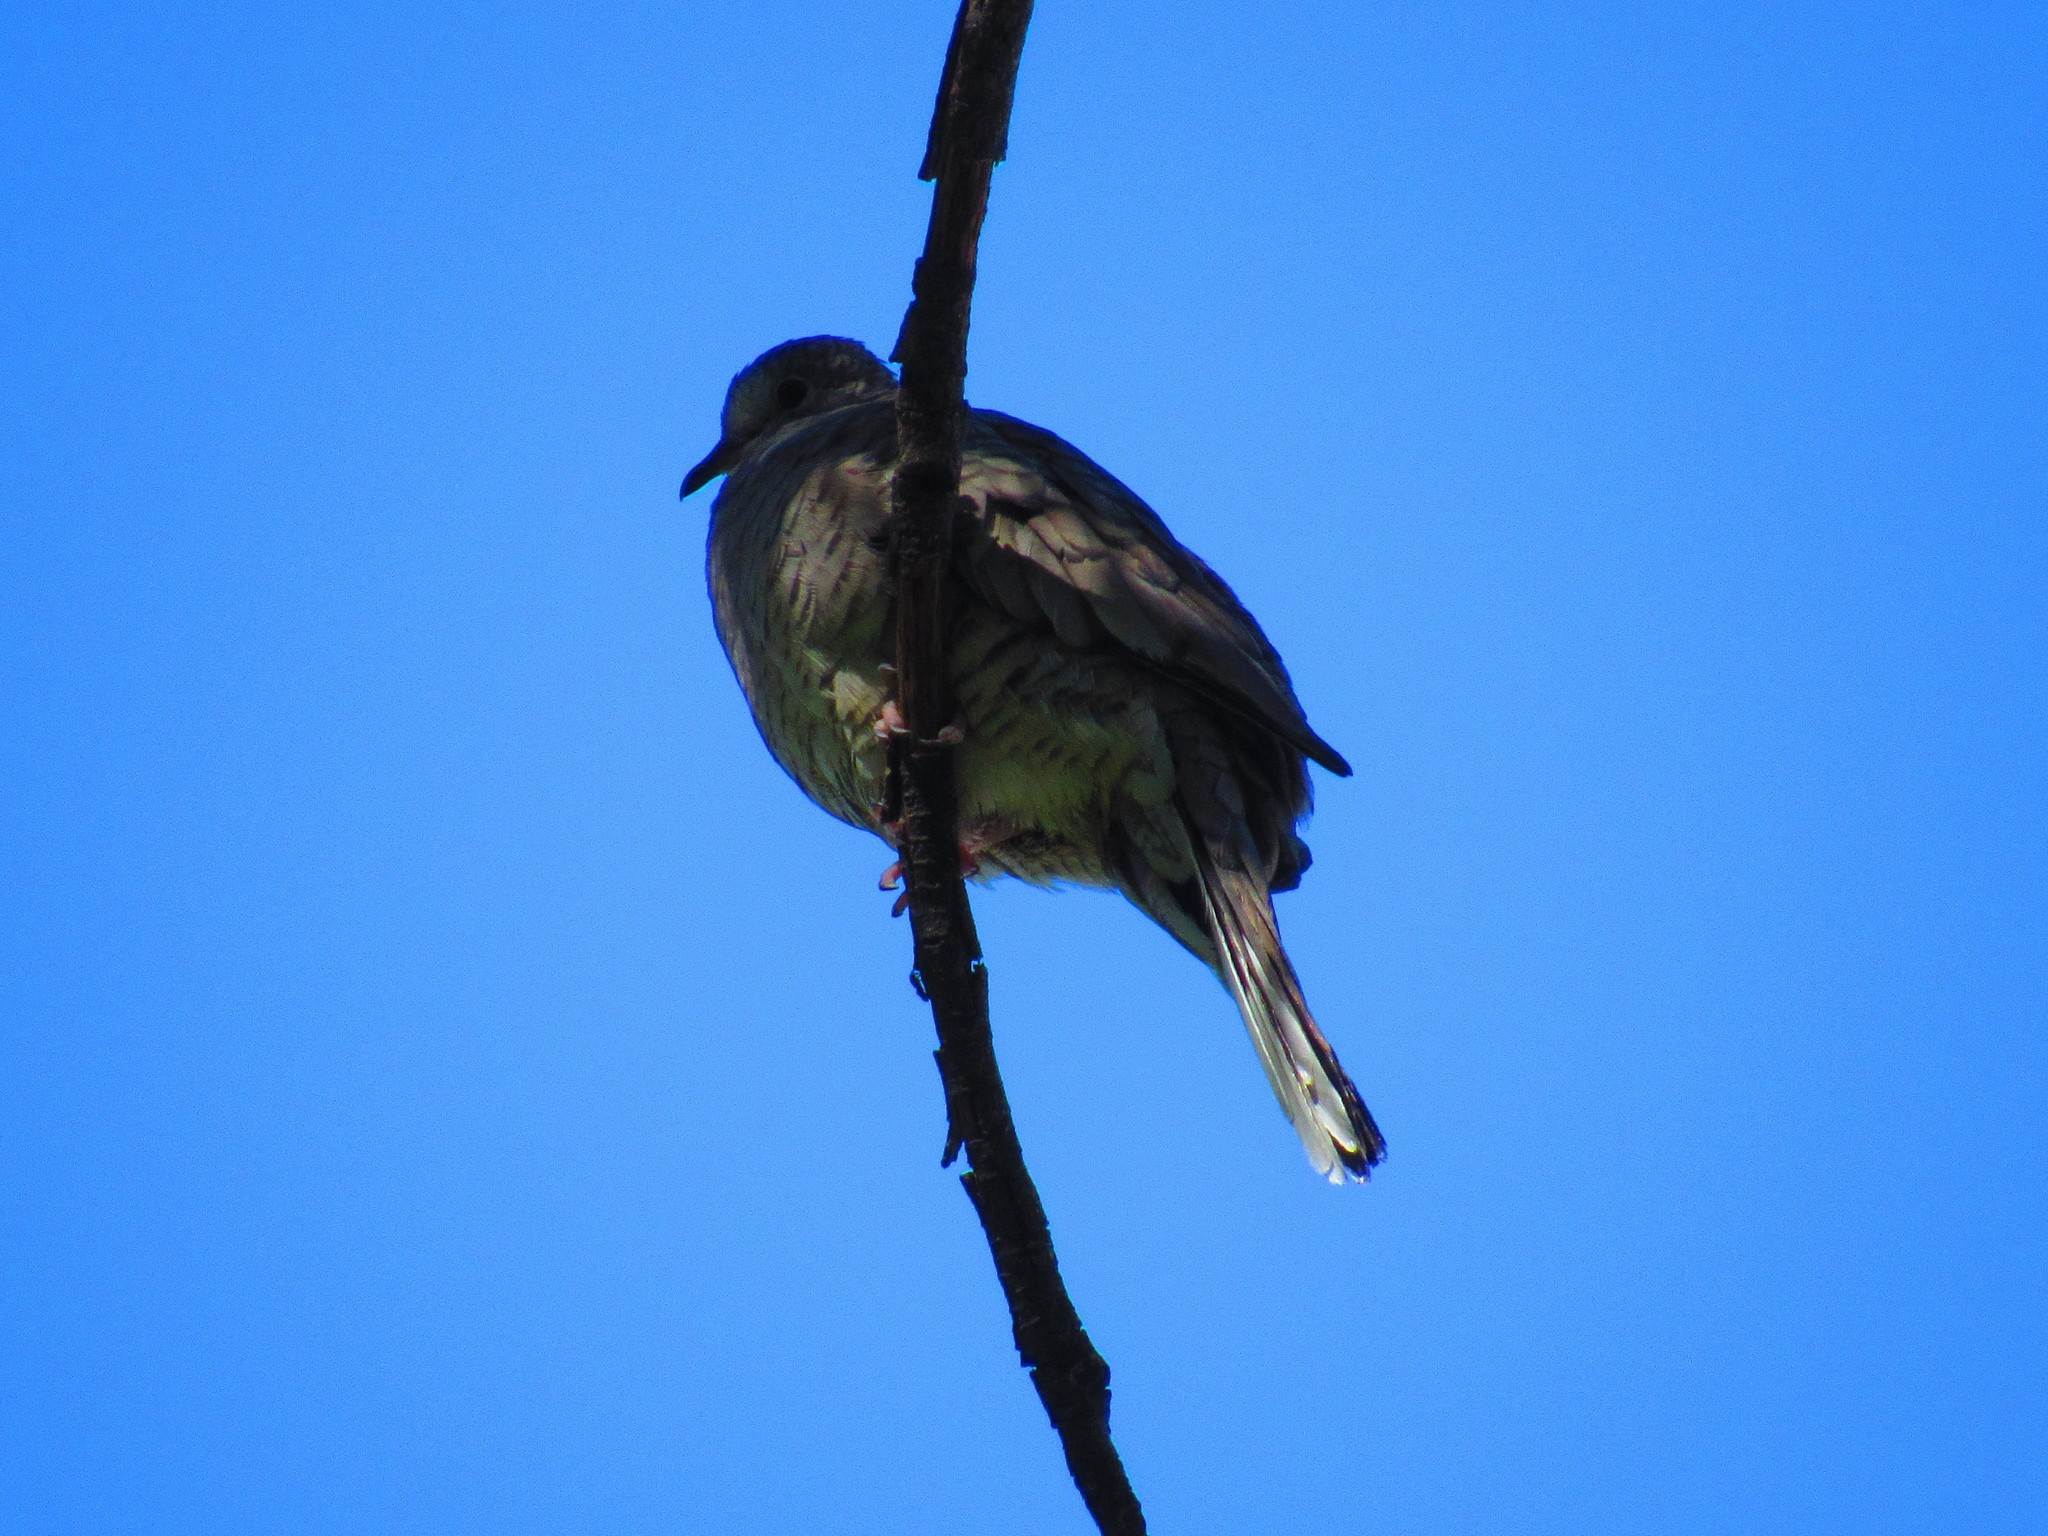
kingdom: Animalia
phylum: Chordata
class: Aves
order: Columbiformes
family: Columbidae
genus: Columbina
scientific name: Columbina inca
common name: Inca dove
